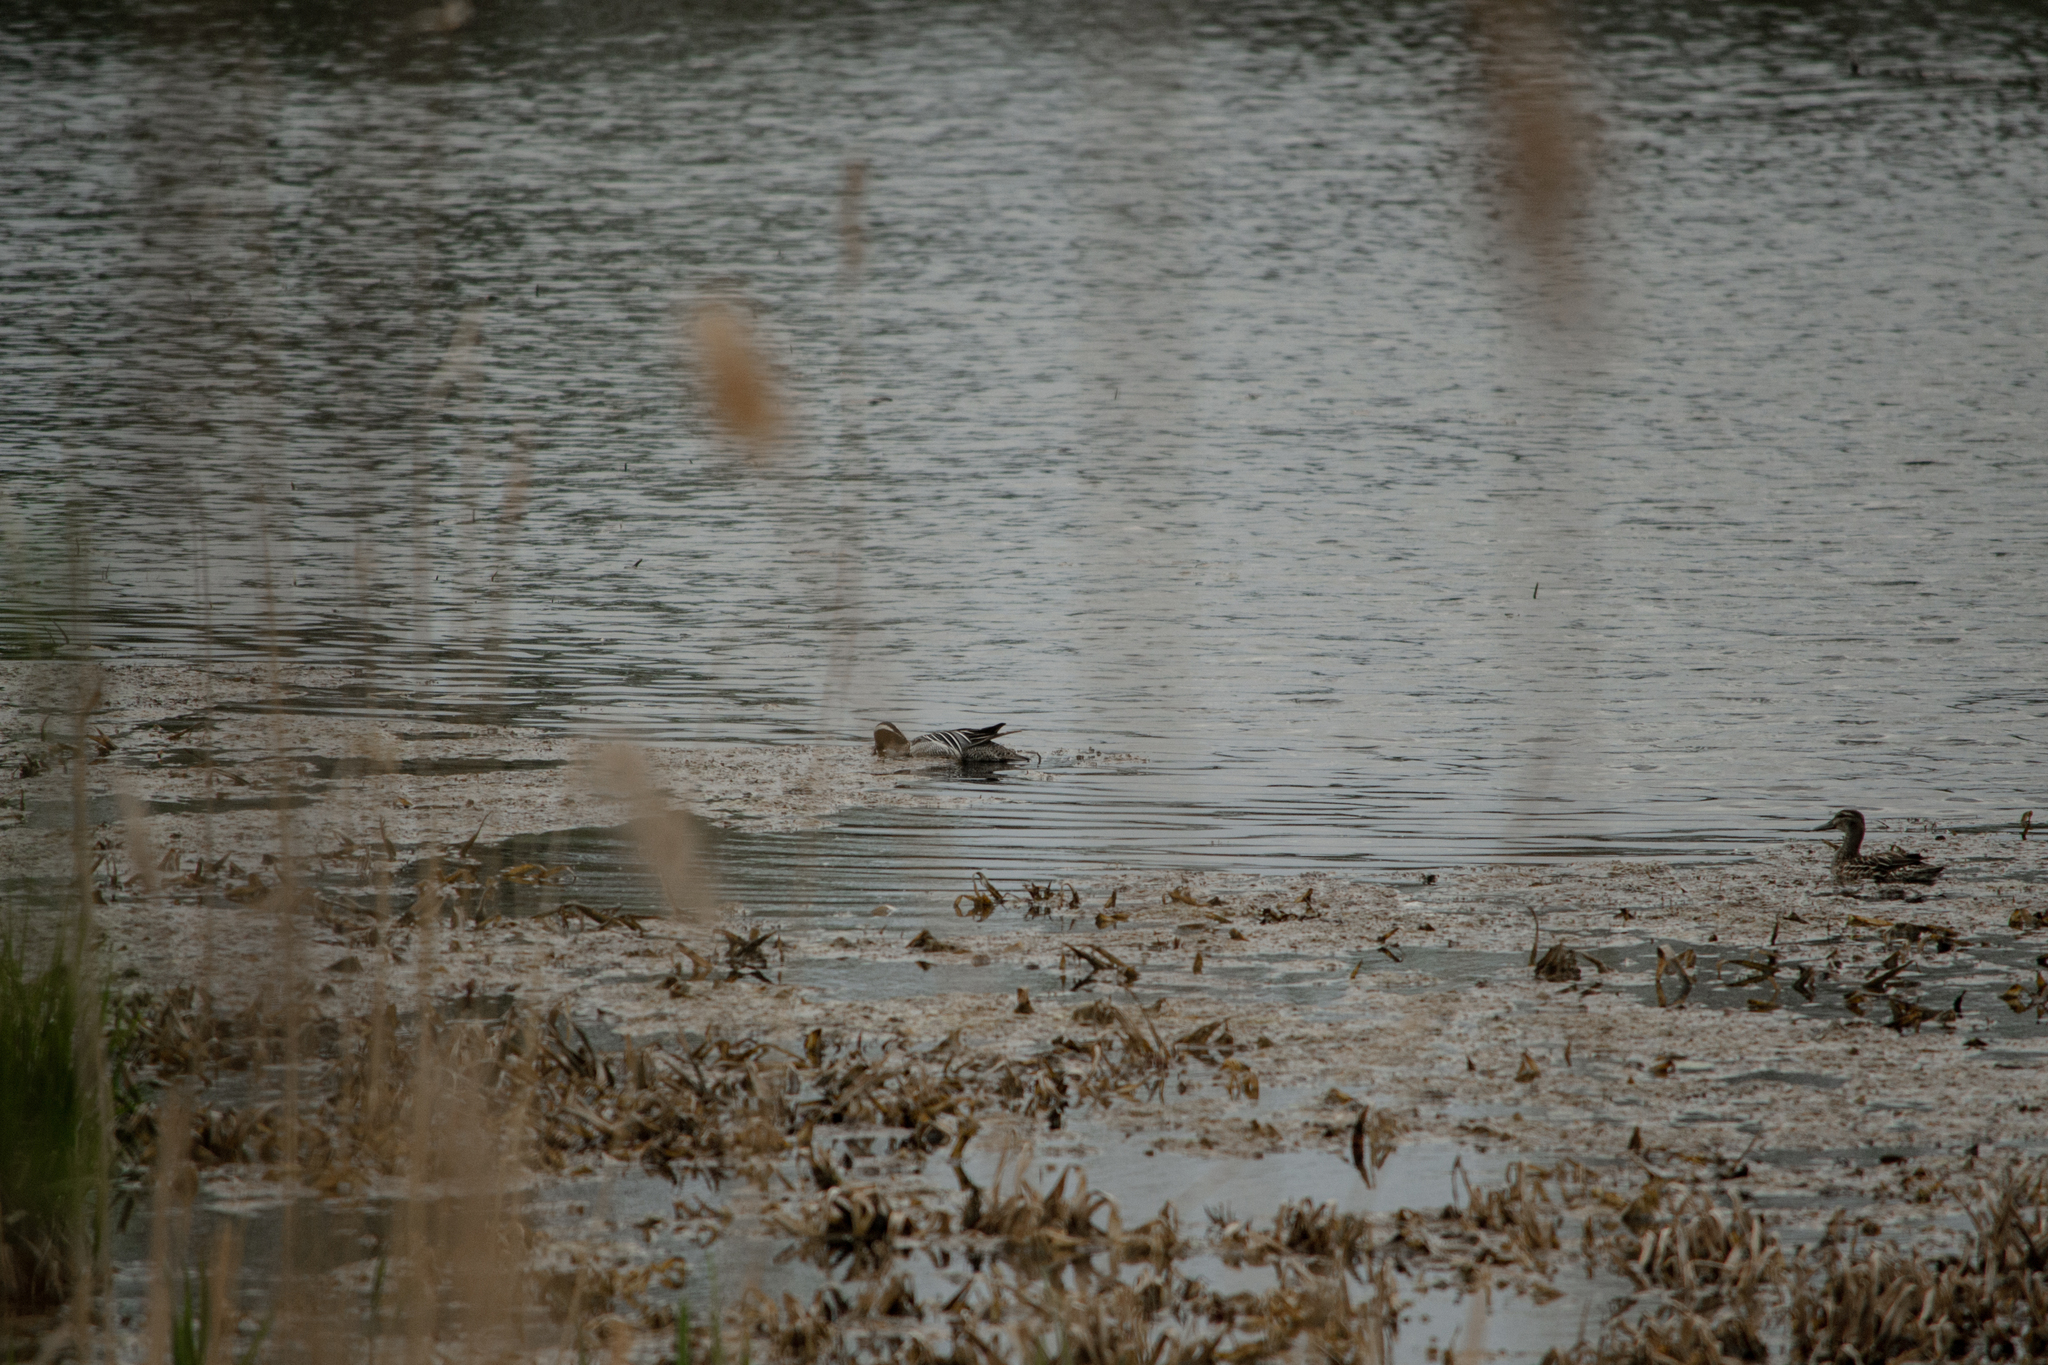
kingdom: Animalia
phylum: Chordata
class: Aves
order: Anseriformes
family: Anatidae
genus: Spatula
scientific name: Spatula querquedula
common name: Garganey
